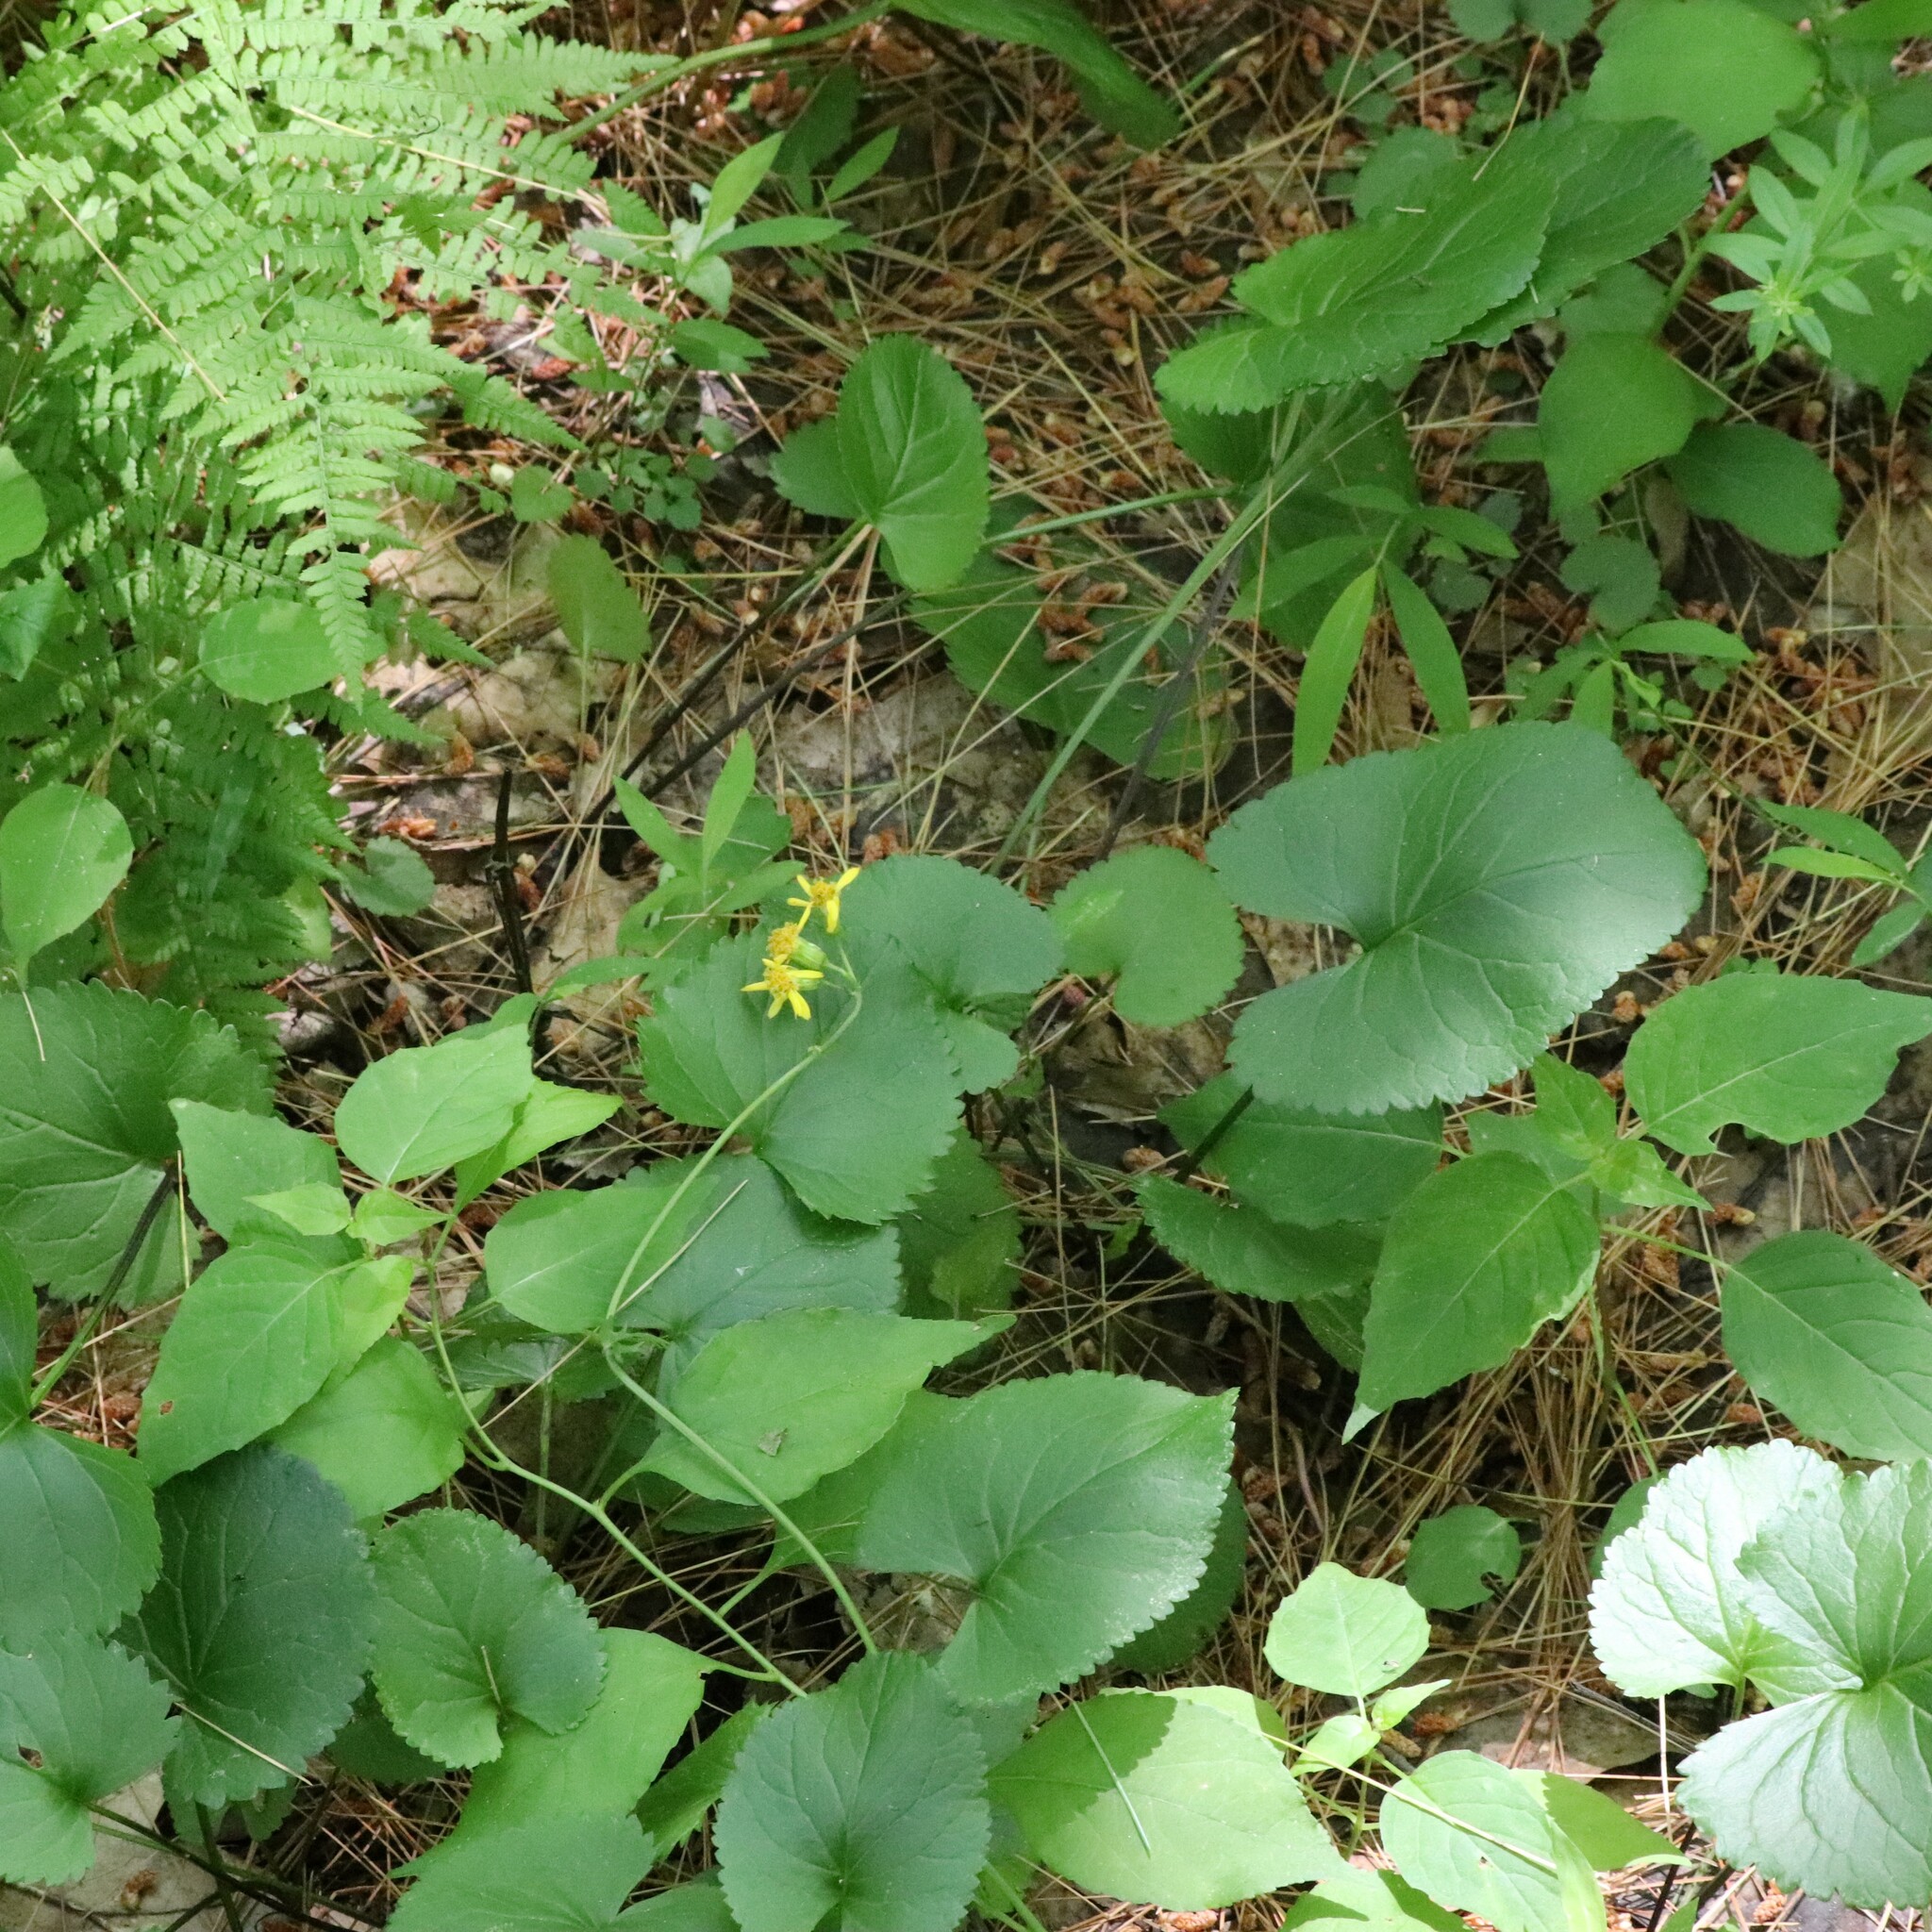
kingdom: Plantae
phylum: Tracheophyta
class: Magnoliopsida
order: Asterales
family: Asteraceae
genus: Packera
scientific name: Packera aurea
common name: Golden groundsel
